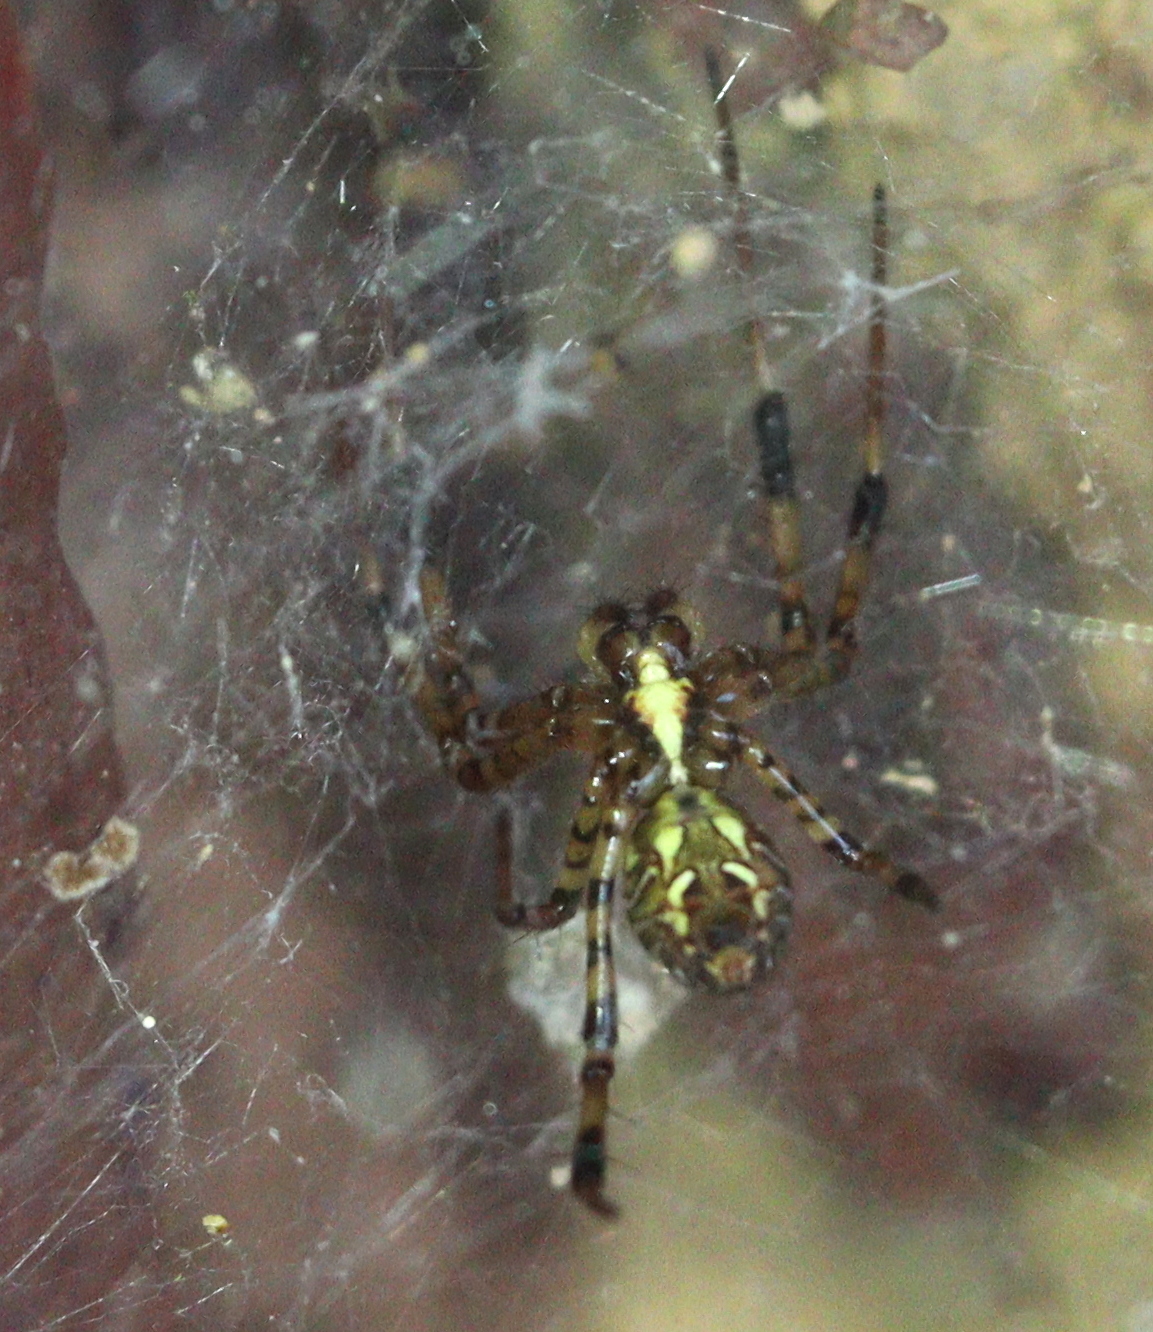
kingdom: Animalia
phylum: Arthropoda
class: Arachnida
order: Araneae
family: Araneidae
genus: Nephilengys
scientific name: Nephilengys malabarensis
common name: Asian hermit spider
